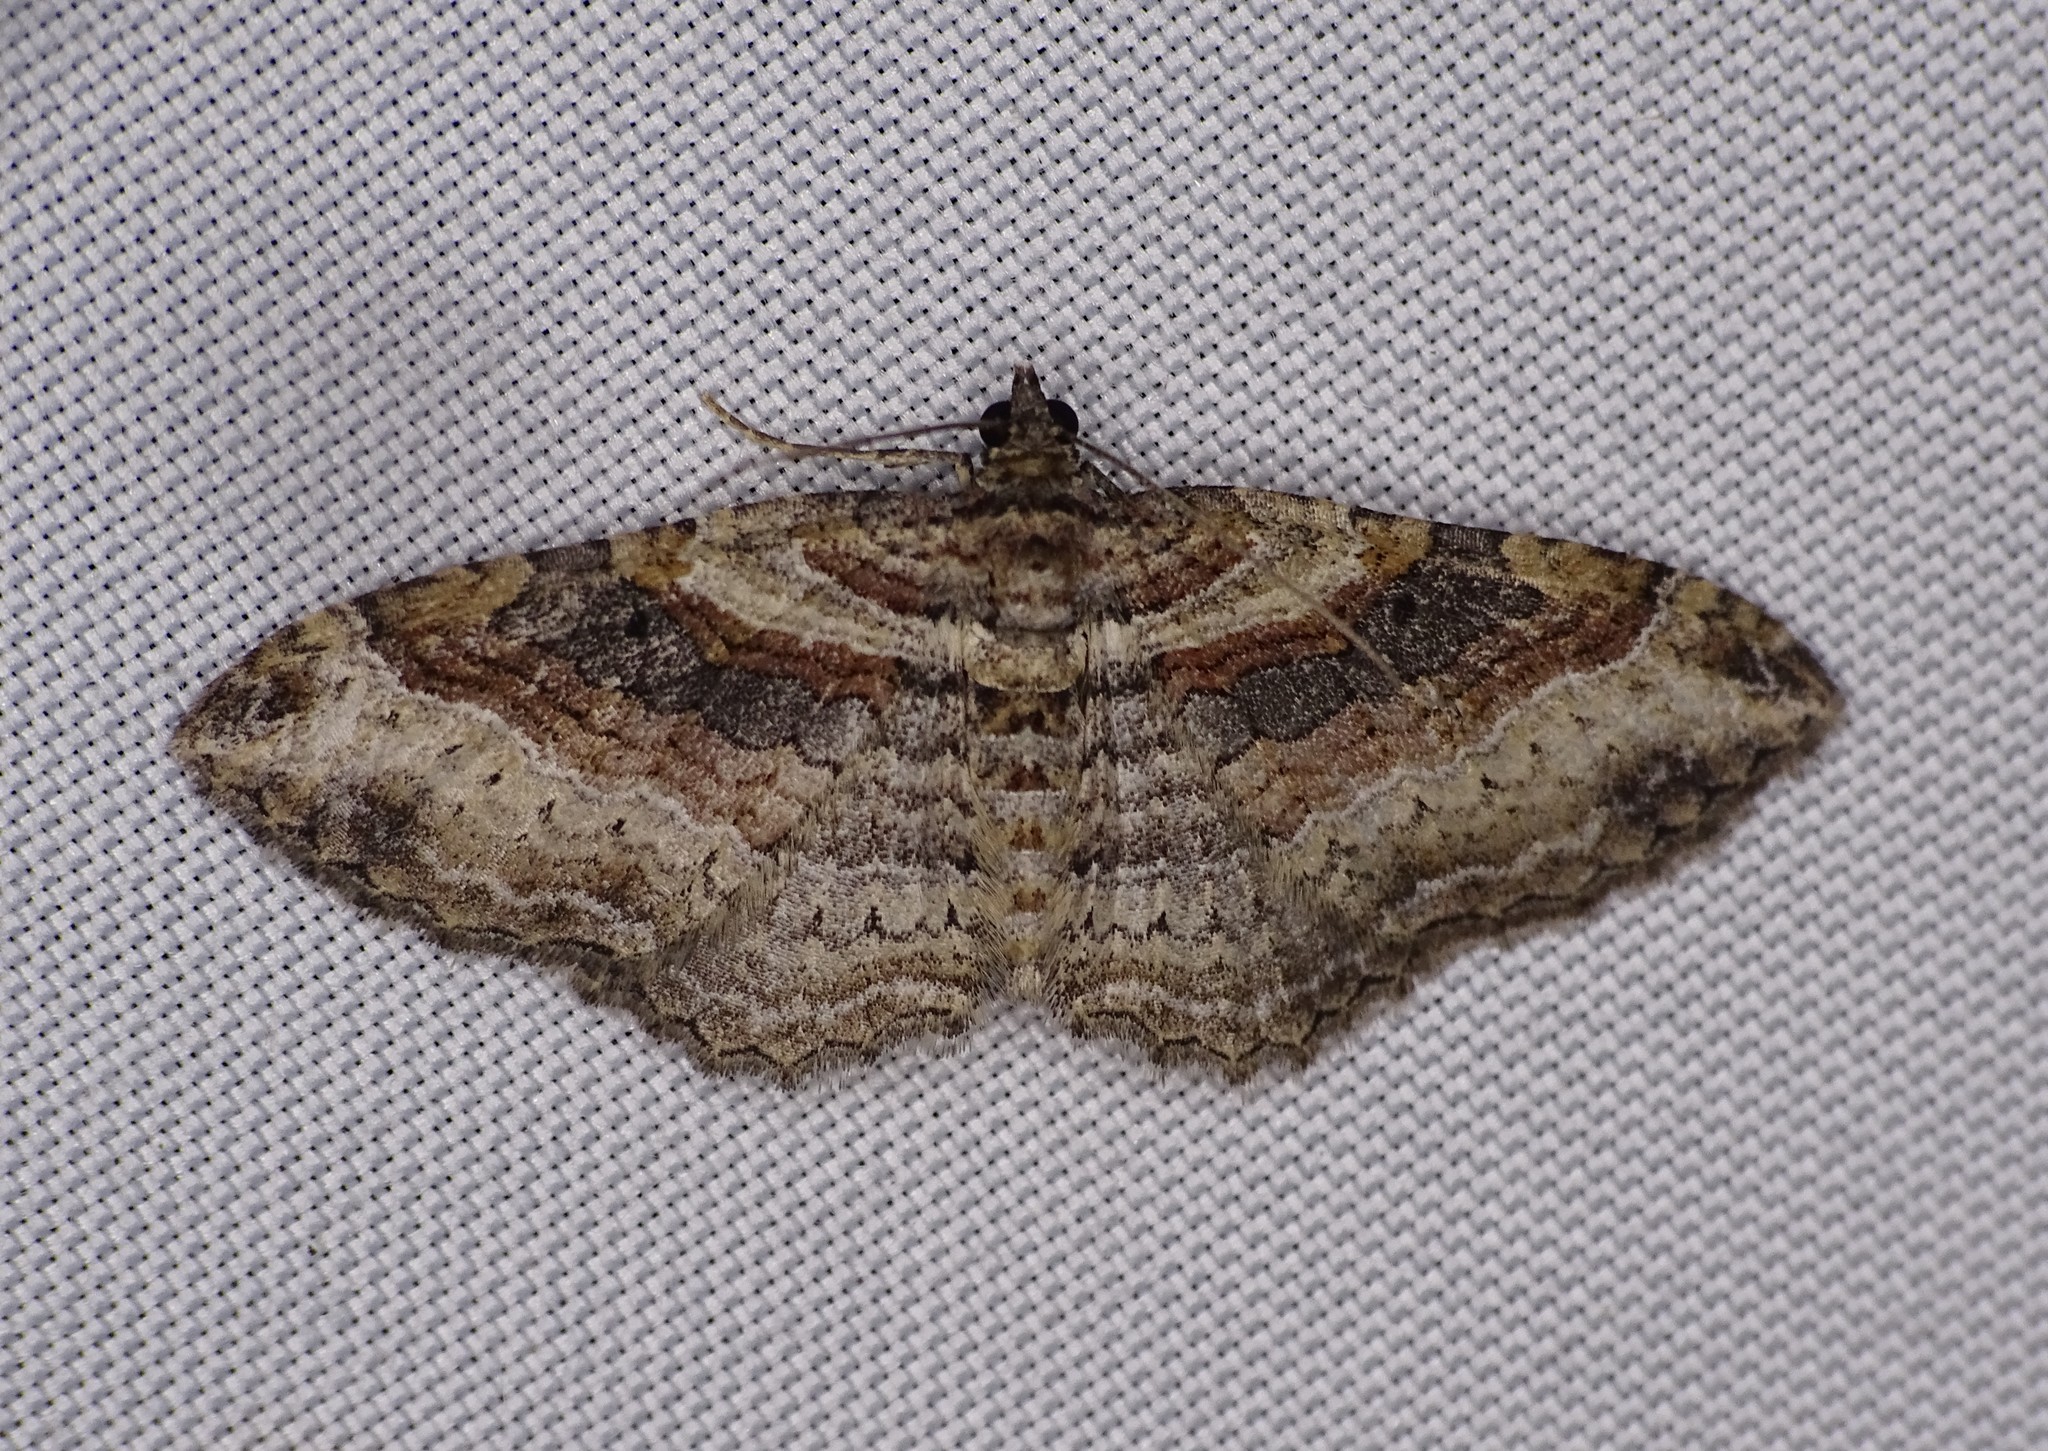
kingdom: Animalia
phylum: Arthropoda
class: Insecta
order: Lepidoptera
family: Geometridae
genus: Costaconvexa
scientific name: Costaconvexa centrostrigaria
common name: Bent-line carpet
